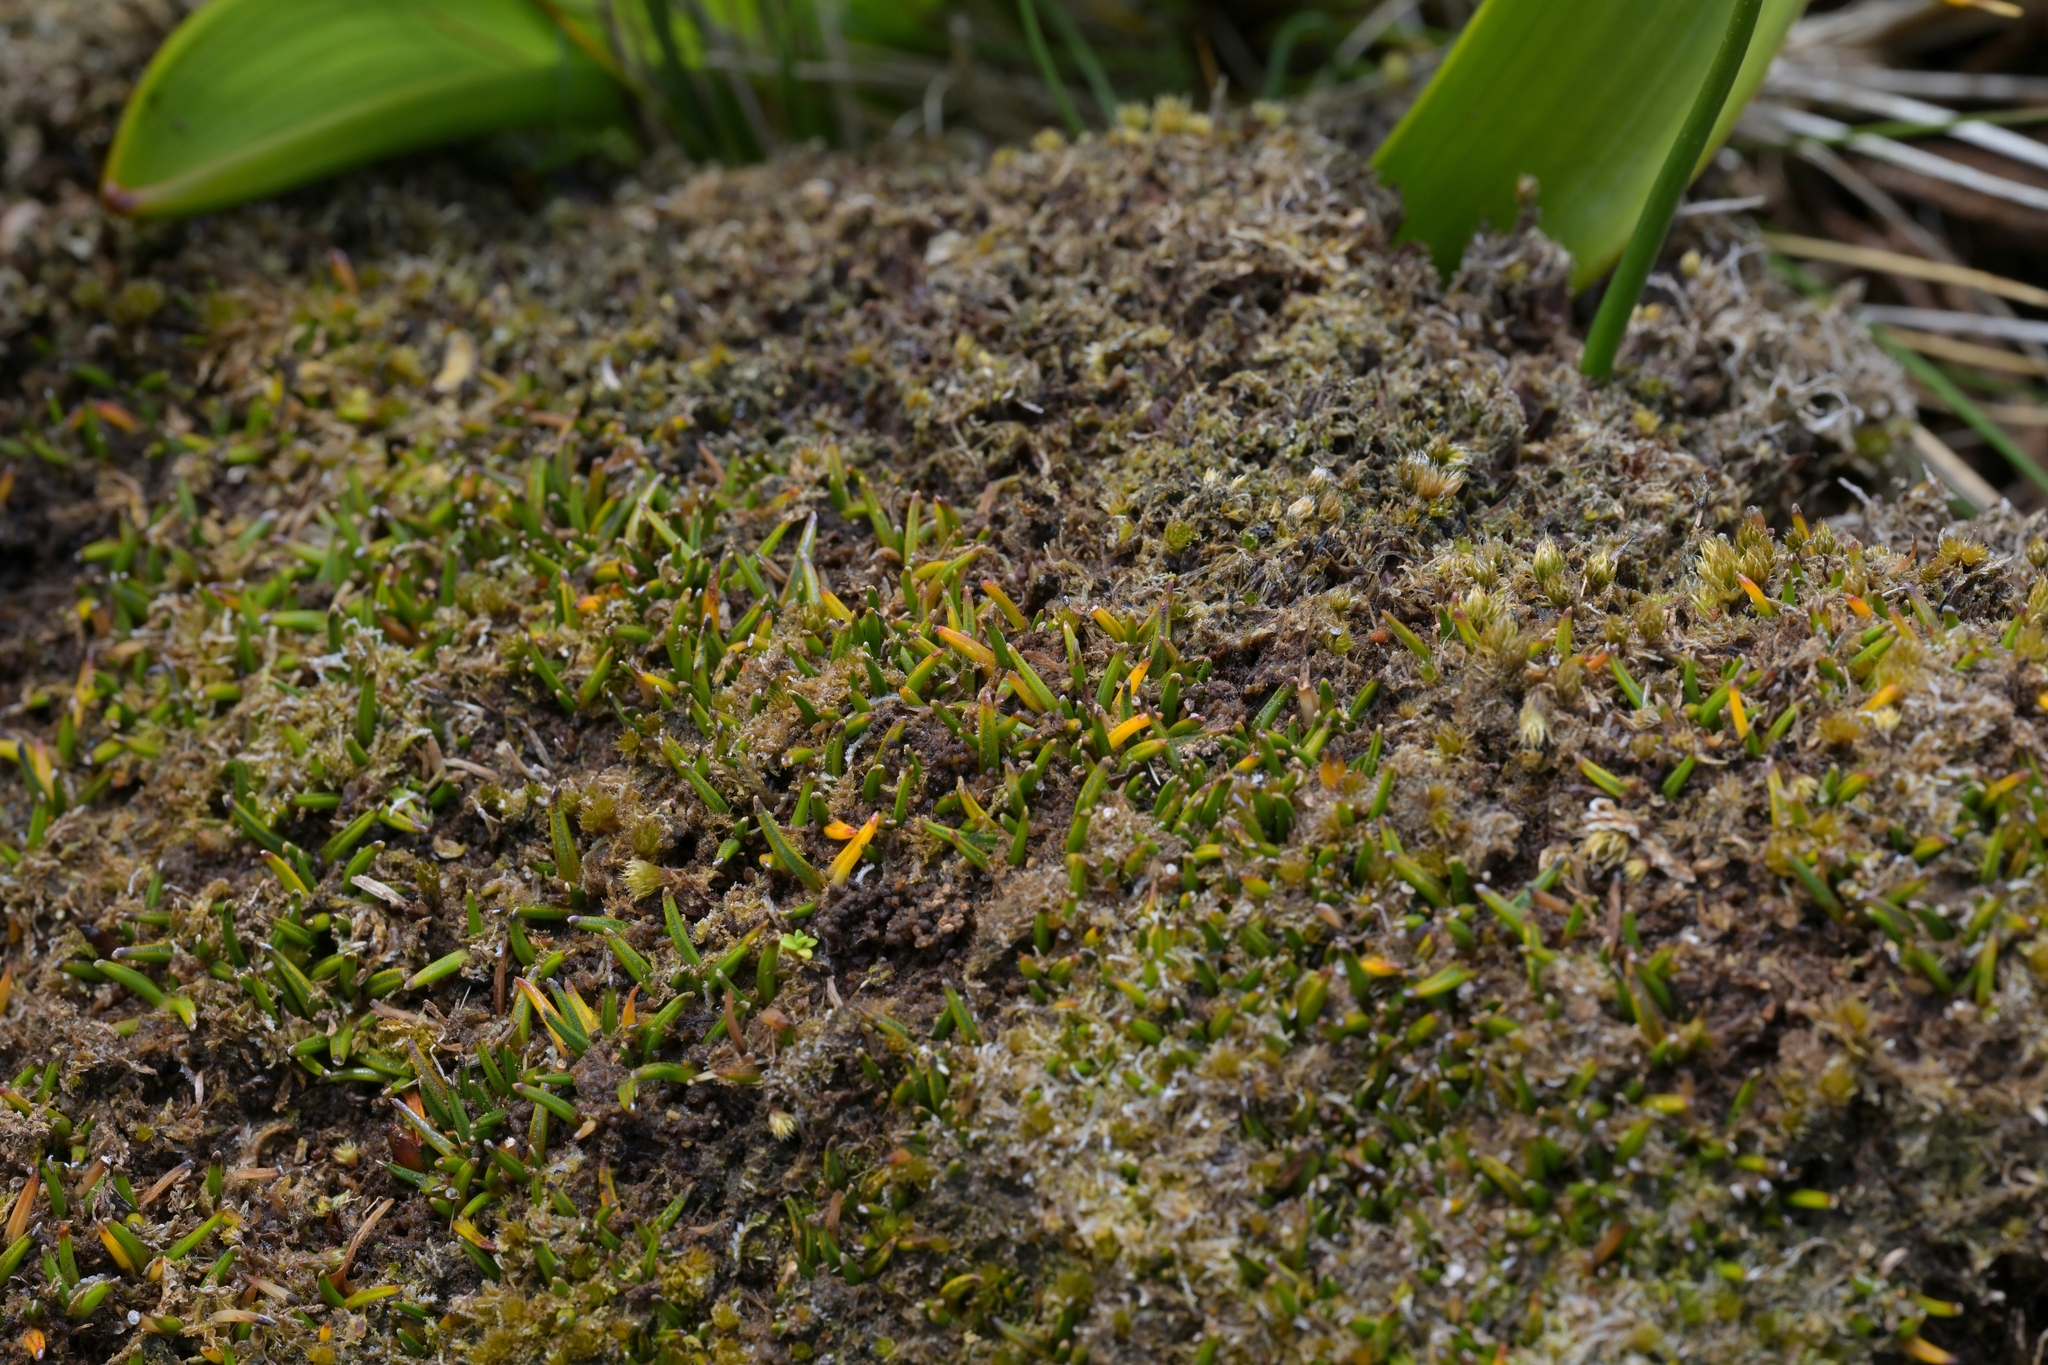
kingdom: Plantae
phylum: Tracheophyta
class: Liliopsida
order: Asparagales
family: Asteliaceae
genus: Astelia
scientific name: Astelia subulata
